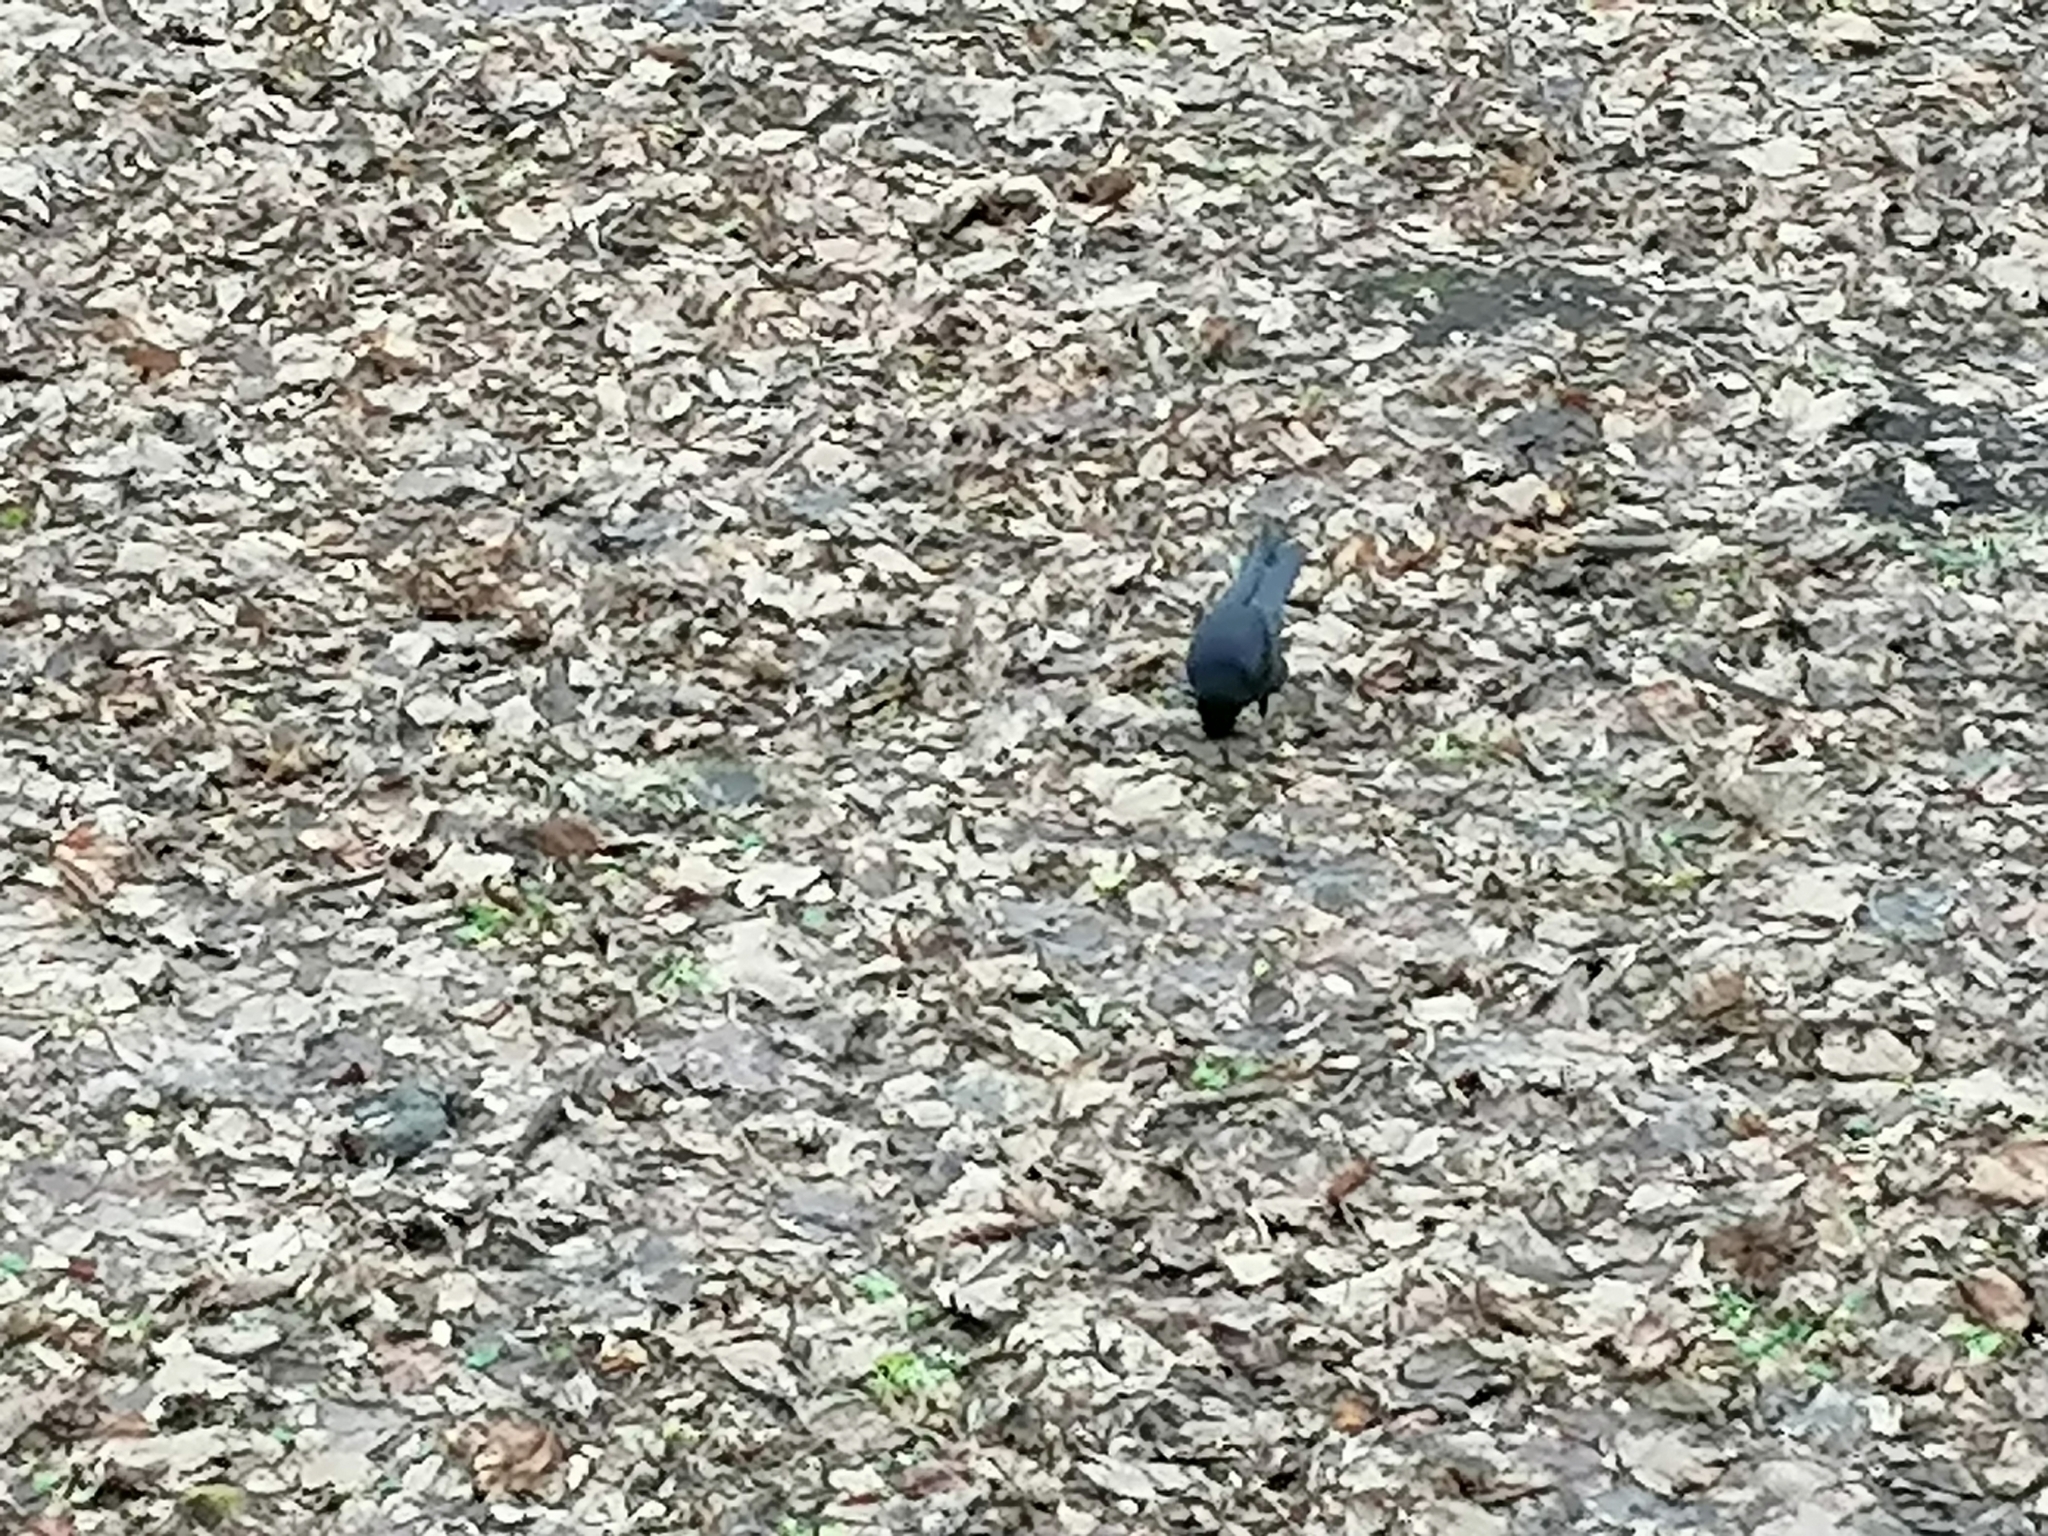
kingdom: Animalia
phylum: Chordata
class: Aves
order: Passeriformes
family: Corvidae
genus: Corvus
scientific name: Corvus frugilegus
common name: Rook
